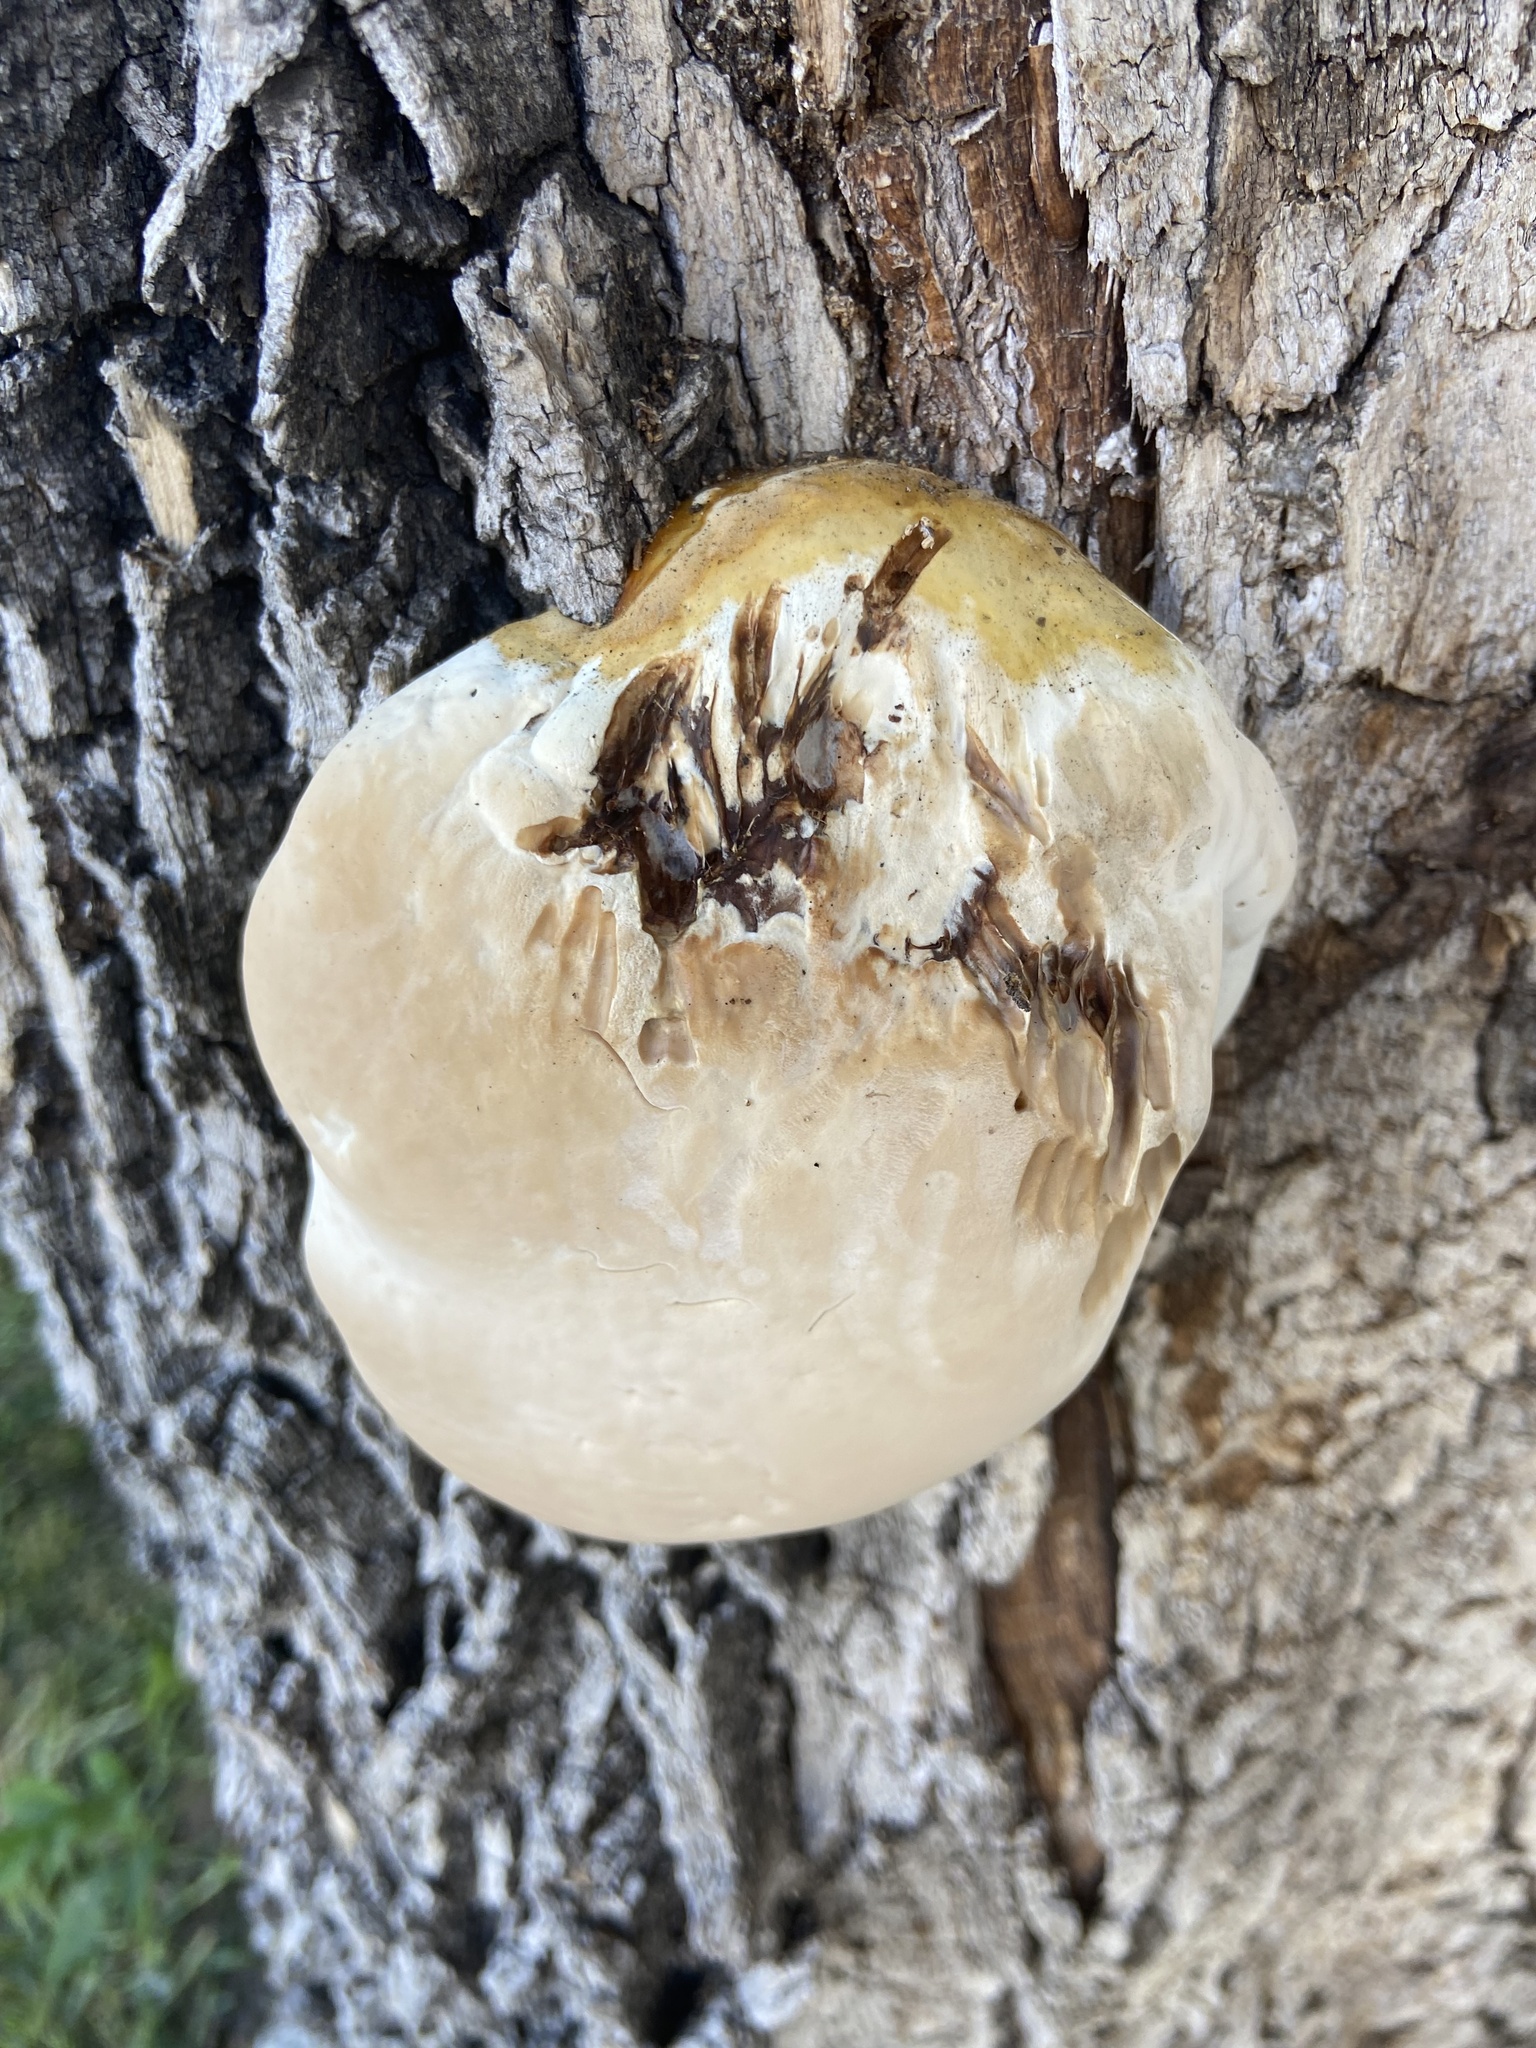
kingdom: Fungi
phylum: Basidiomycota
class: Agaricomycetes
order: Polyporales
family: Polyporaceae
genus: Ganoderma
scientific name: Ganoderma polychromum
